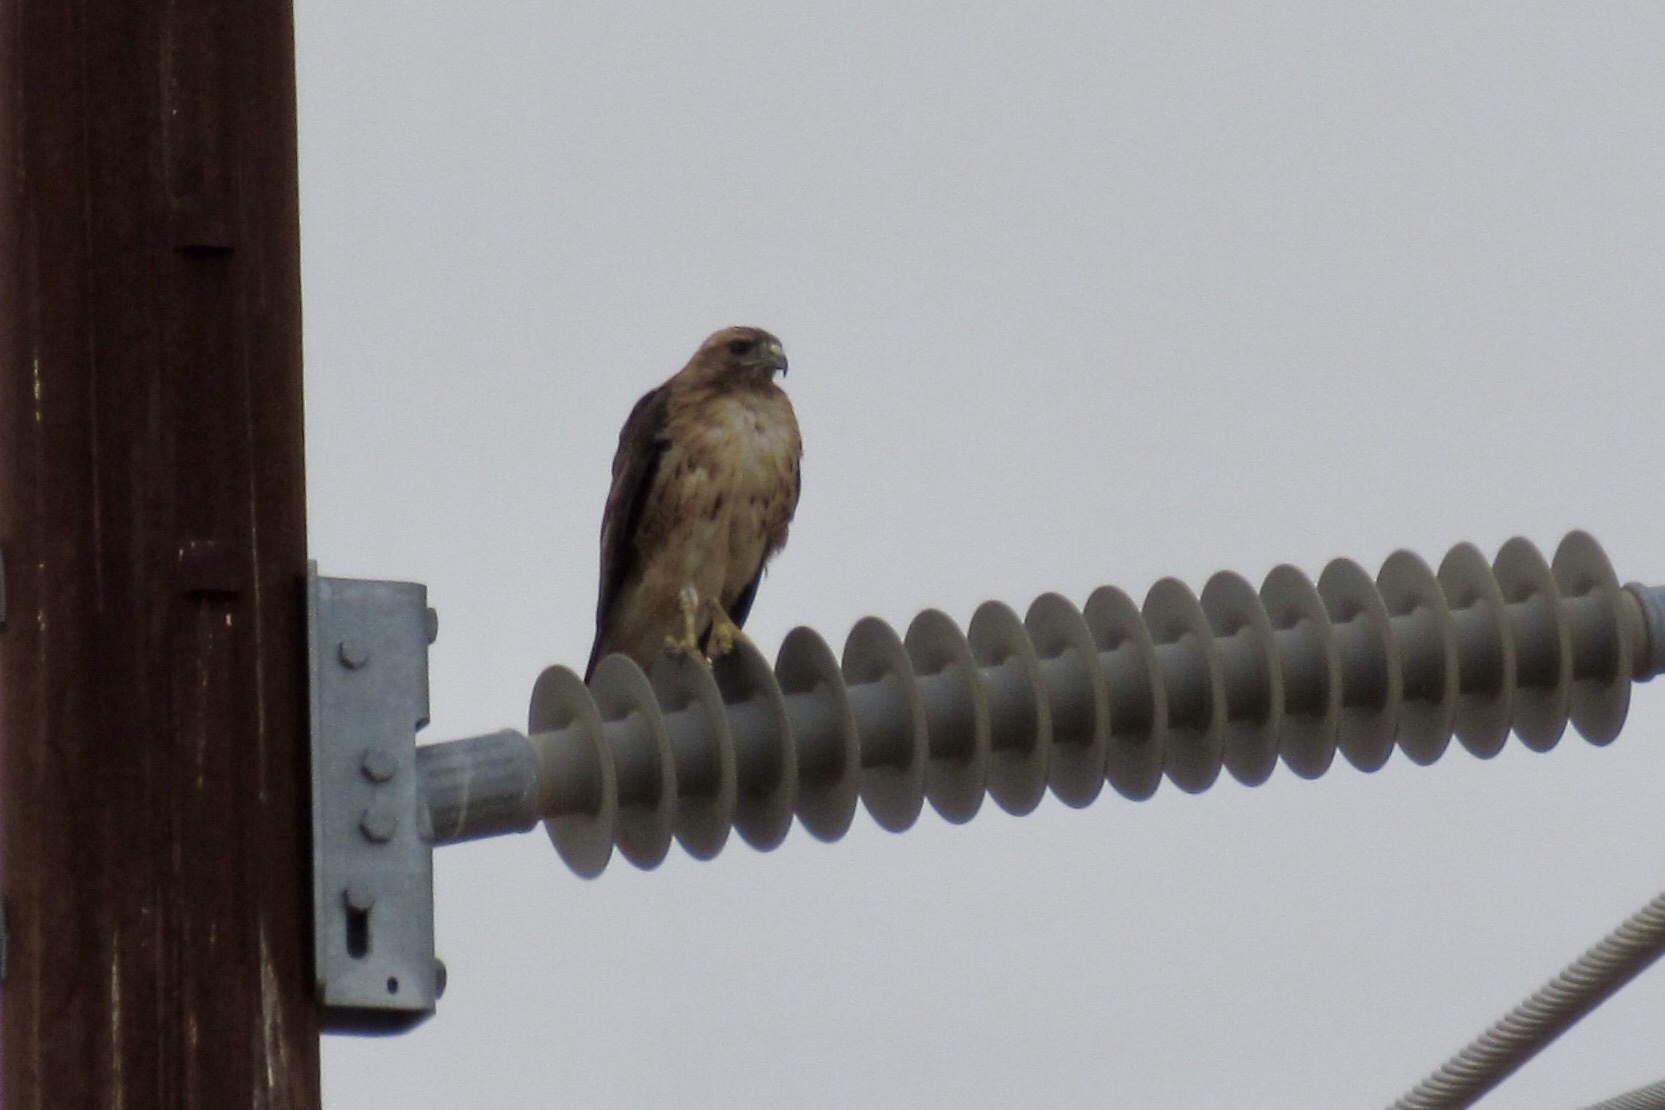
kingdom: Animalia
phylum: Chordata
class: Aves
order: Accipitriformes
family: Accipitridae
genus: Buteo
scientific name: Buteo jamaicensis
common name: Red-tailed hawk
